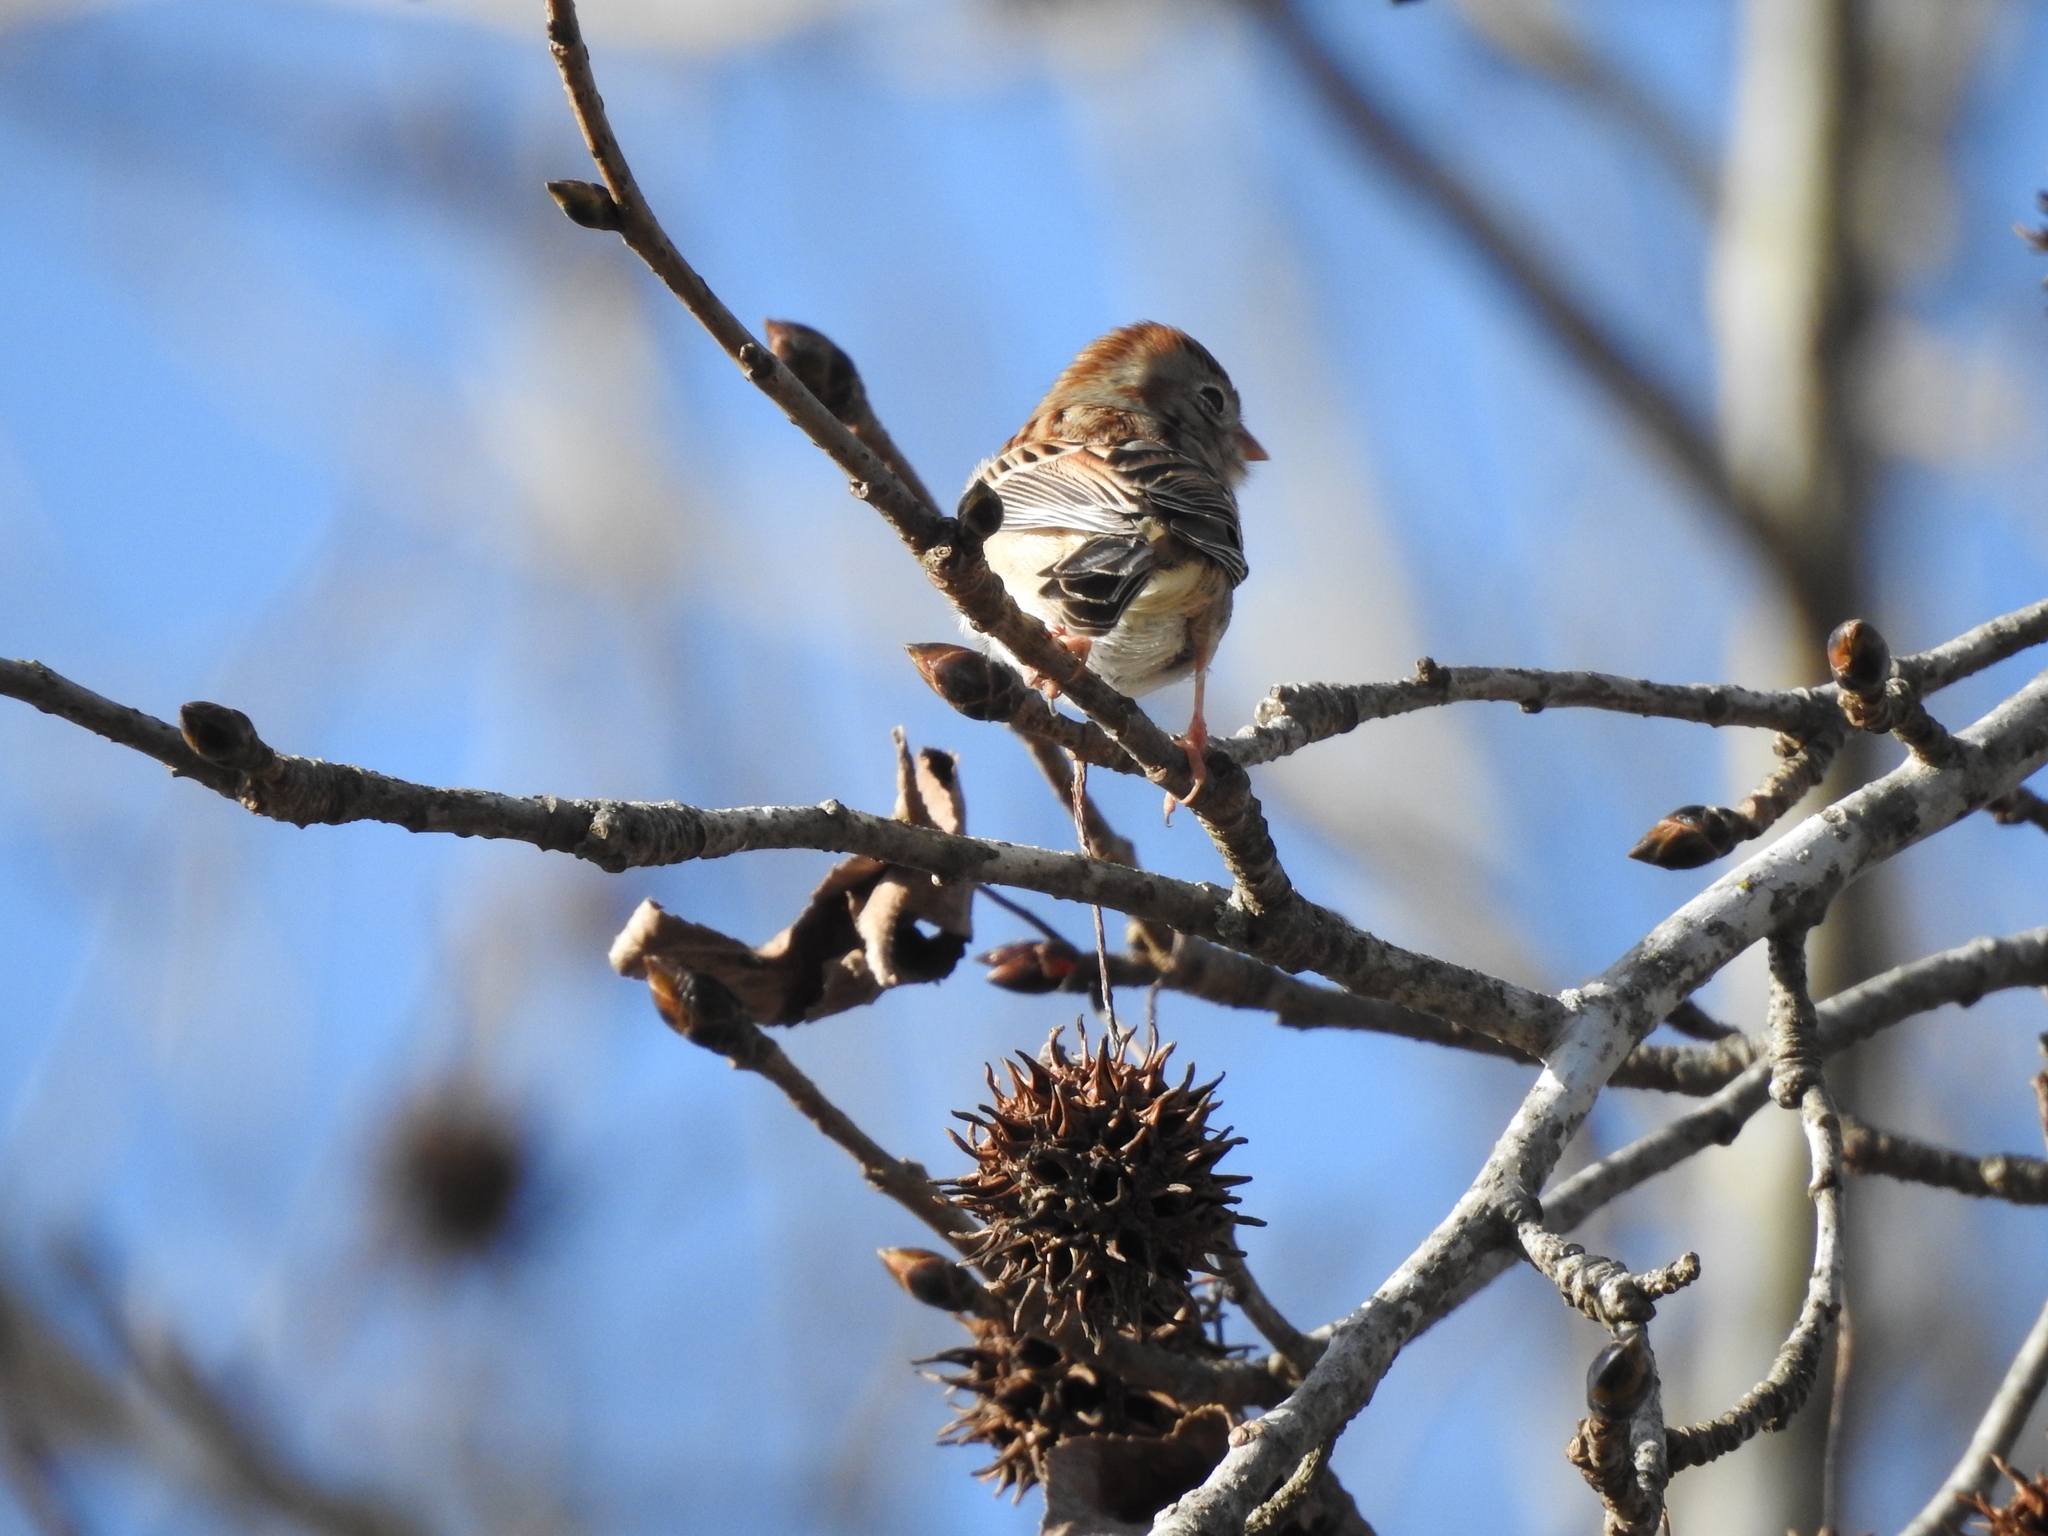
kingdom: Animalia
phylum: Chordata
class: Aves
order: Passeriformes
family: Passerellidae
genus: Spizella
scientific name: Spizella pusilla
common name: Field sparrow
